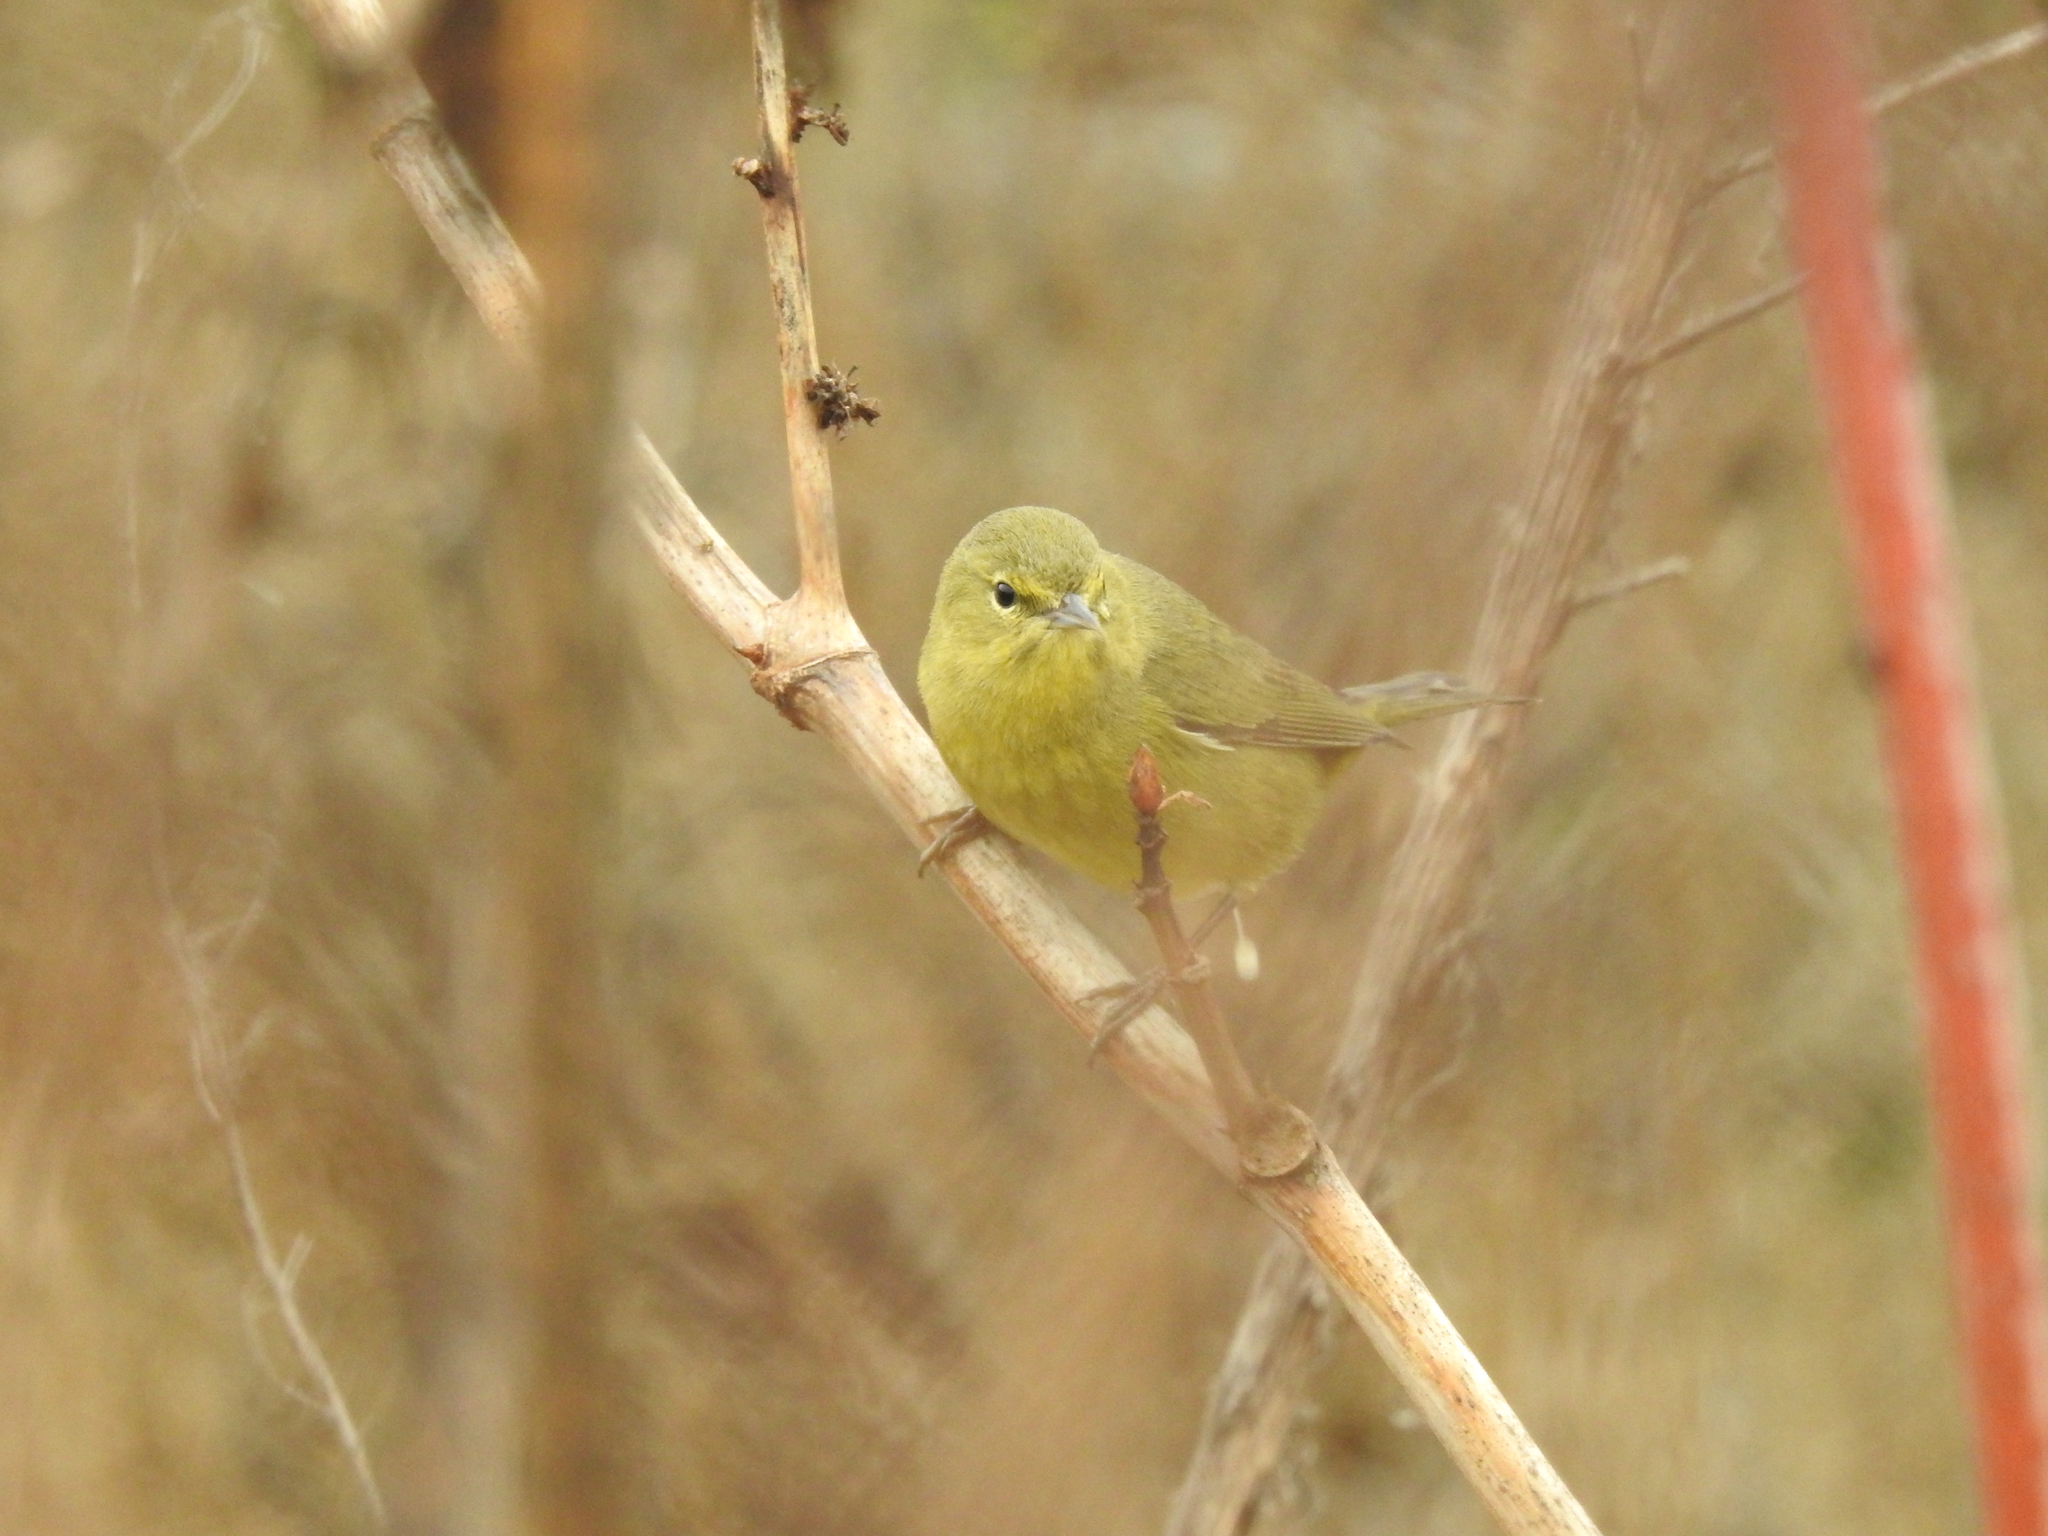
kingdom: Animalia
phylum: Chordata
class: Aves
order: Passeriformes
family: Parulidae
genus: Leiothlypis
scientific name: Leiothlypis celata
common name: Orange-crowned warbler
